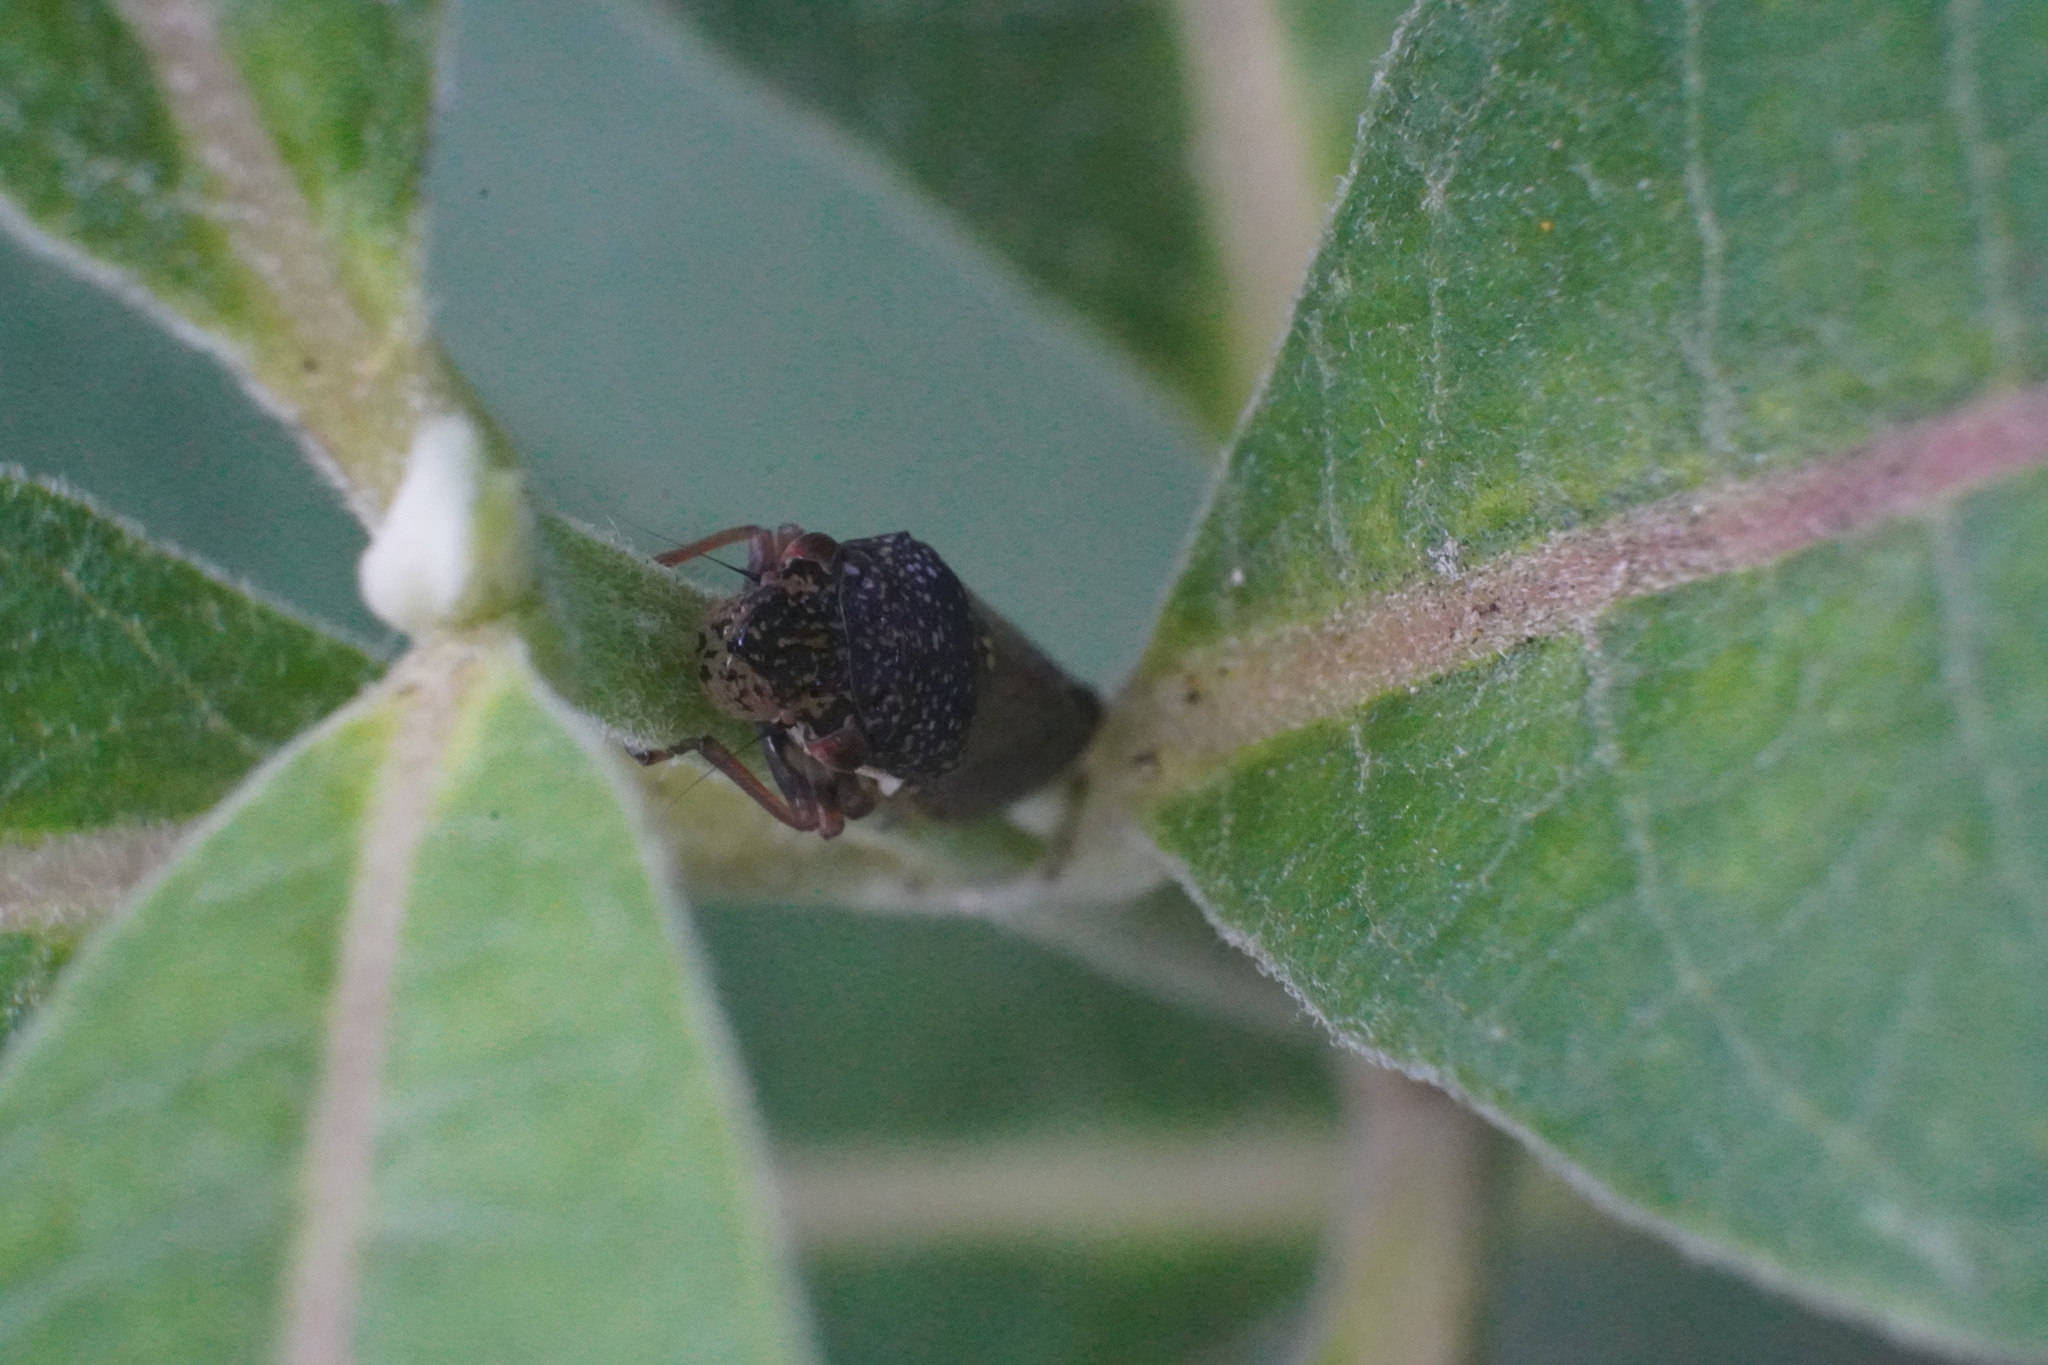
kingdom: Animalia
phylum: Arthropoda
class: Insecta
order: Hemiptera
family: Cicadellidae
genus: Paraulacizes
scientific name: Paraulacizes irrorata
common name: Speckled sharpshooter
